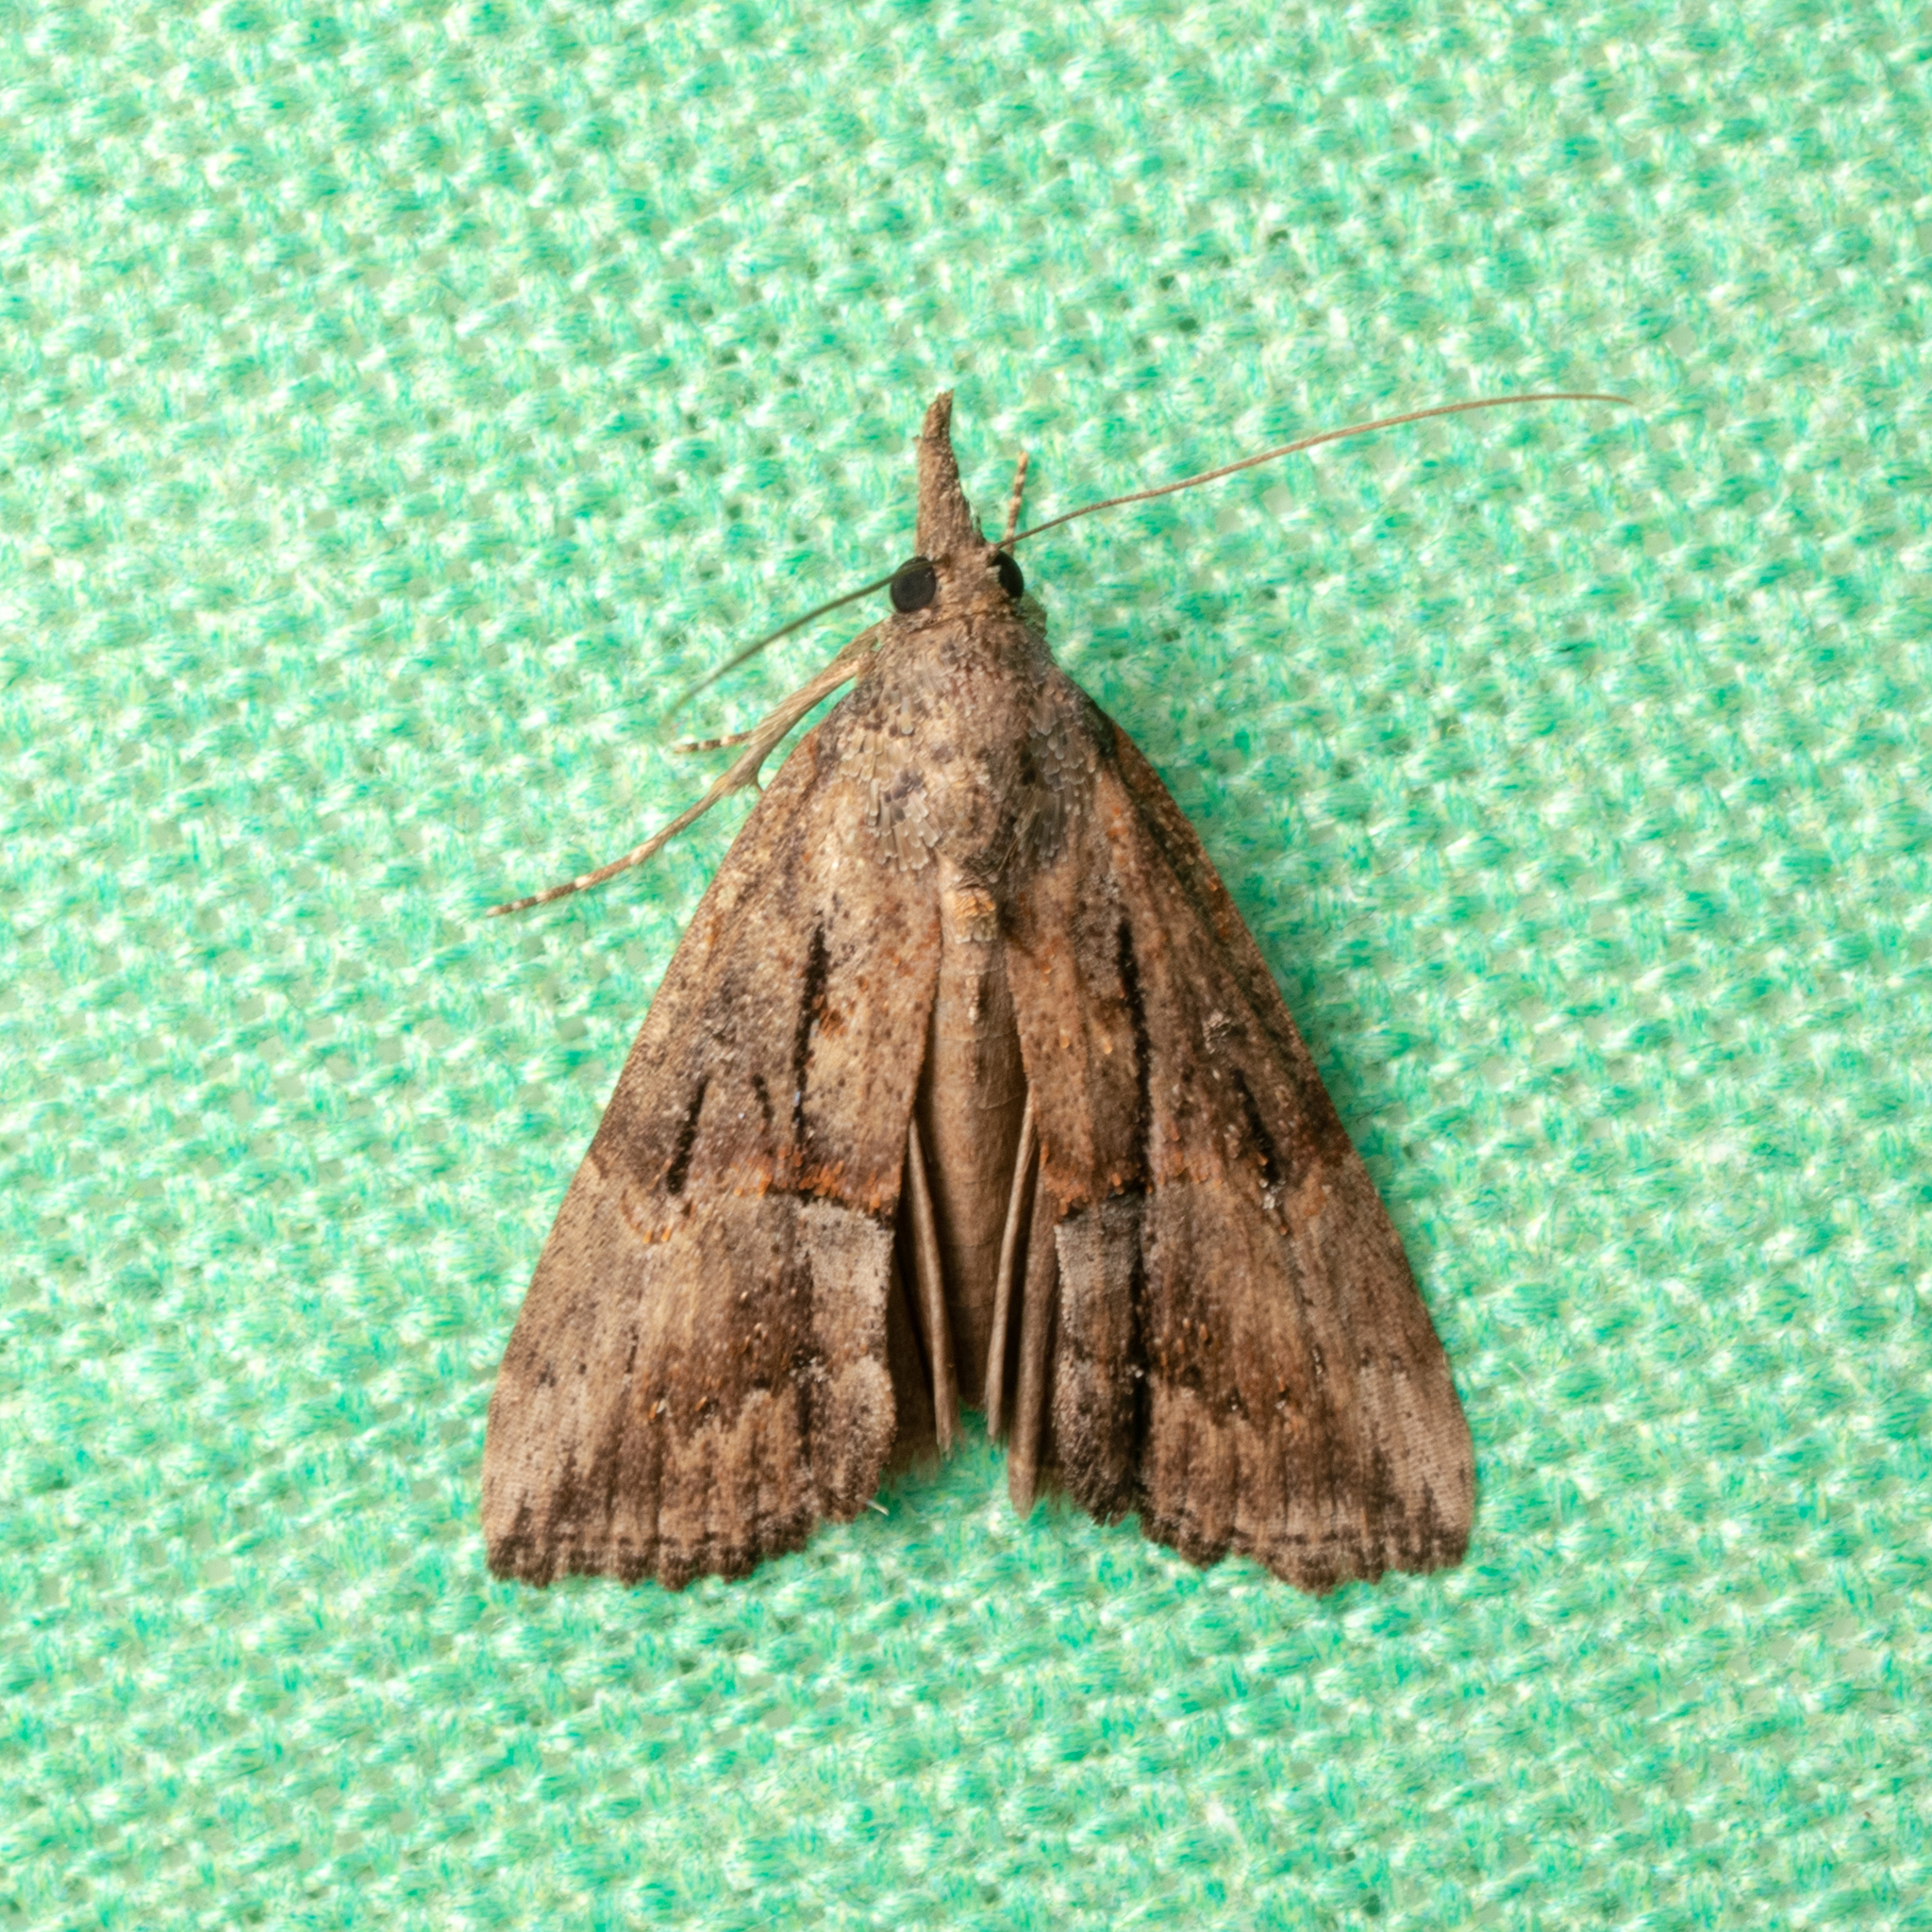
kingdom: Animalia
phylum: Arthropoda
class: Insecta
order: Lepidoptera
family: Erebidae
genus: Hypena
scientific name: Hypena scabra
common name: Green cloverworm
